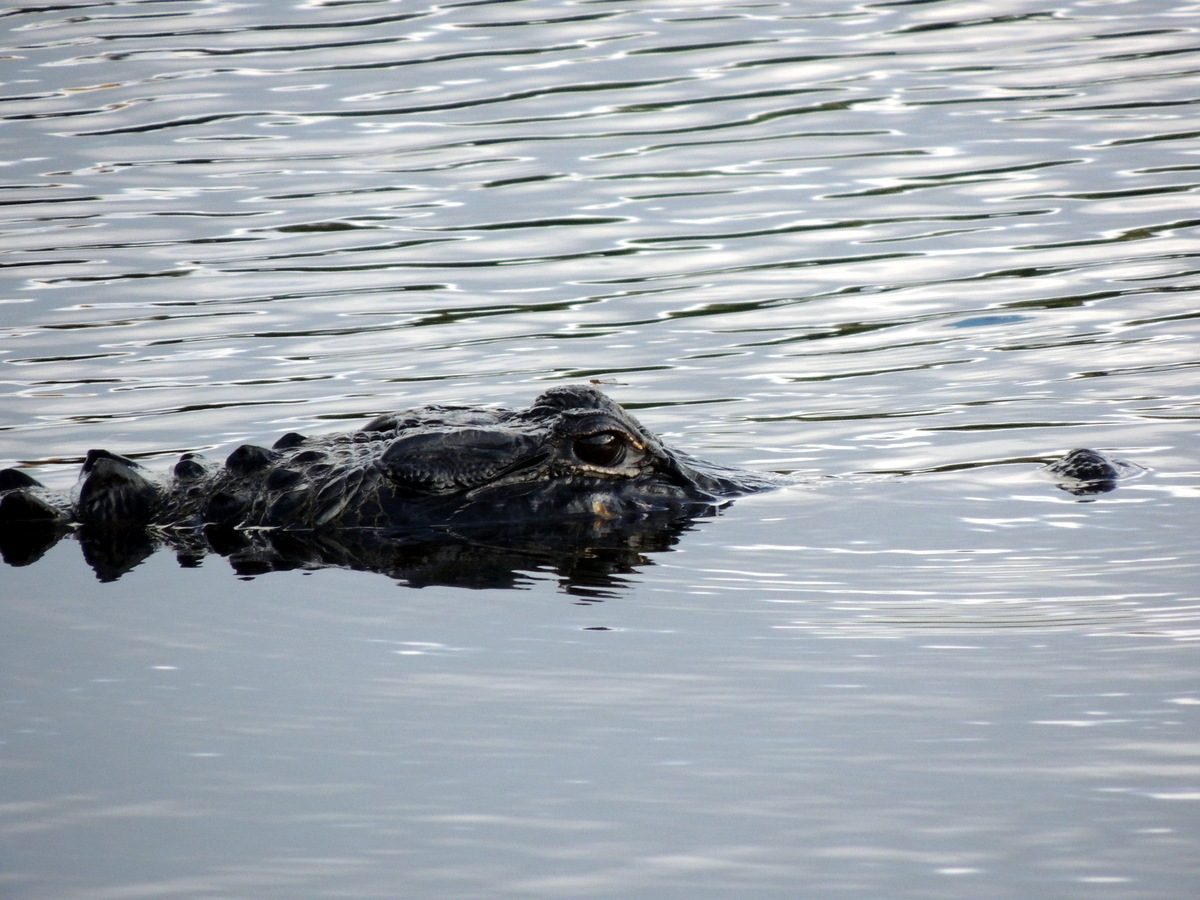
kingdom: Animalia
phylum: Chordata
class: Crocodylia
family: Alligatoridae
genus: Alligator
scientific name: Alligator mississippiensis
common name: American alligator
